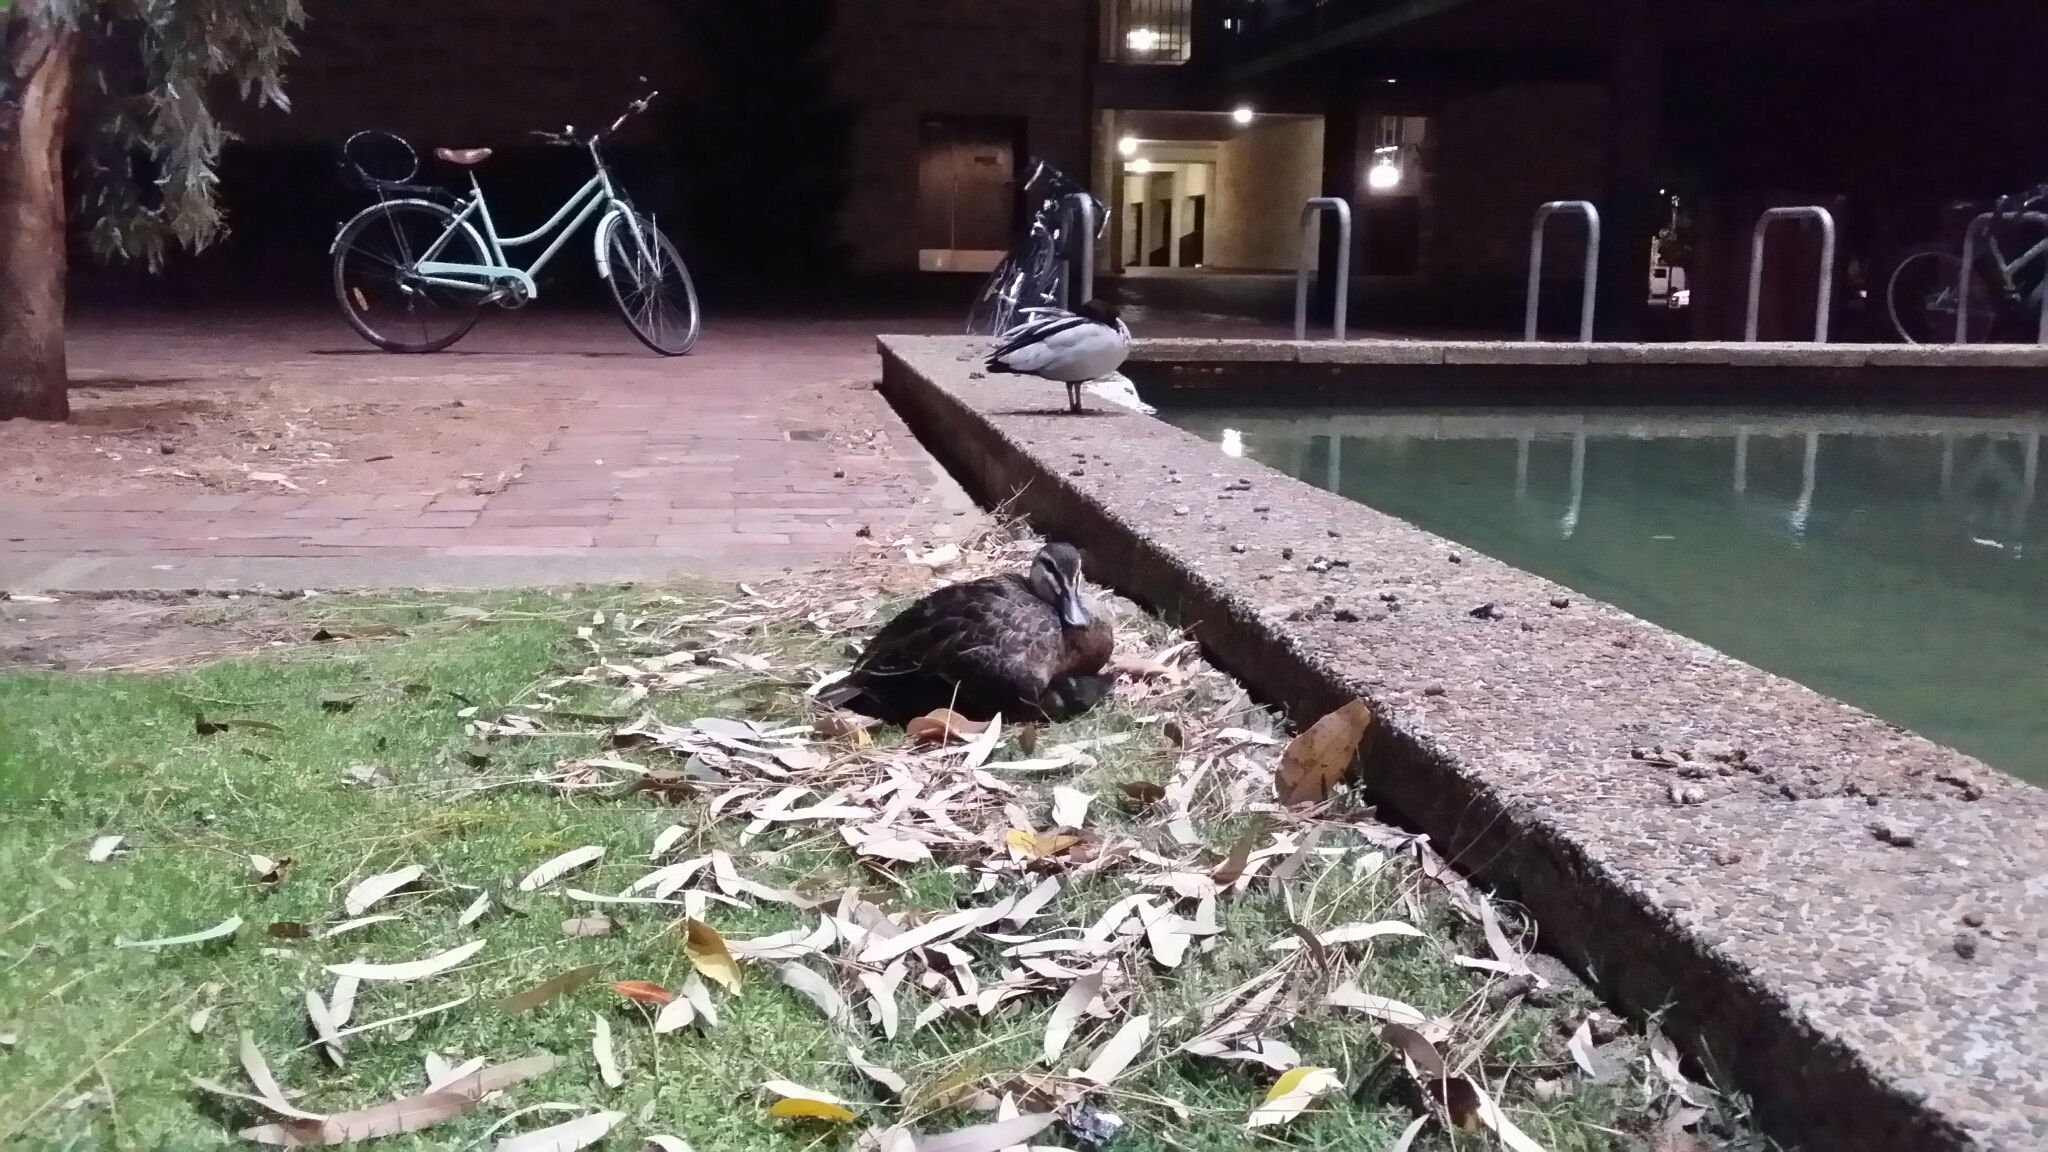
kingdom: Animalia
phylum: Chordata
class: Aves
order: Anseriformes
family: Anatidae
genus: Anas
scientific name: Anas superciliosa
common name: Pacific black duck
